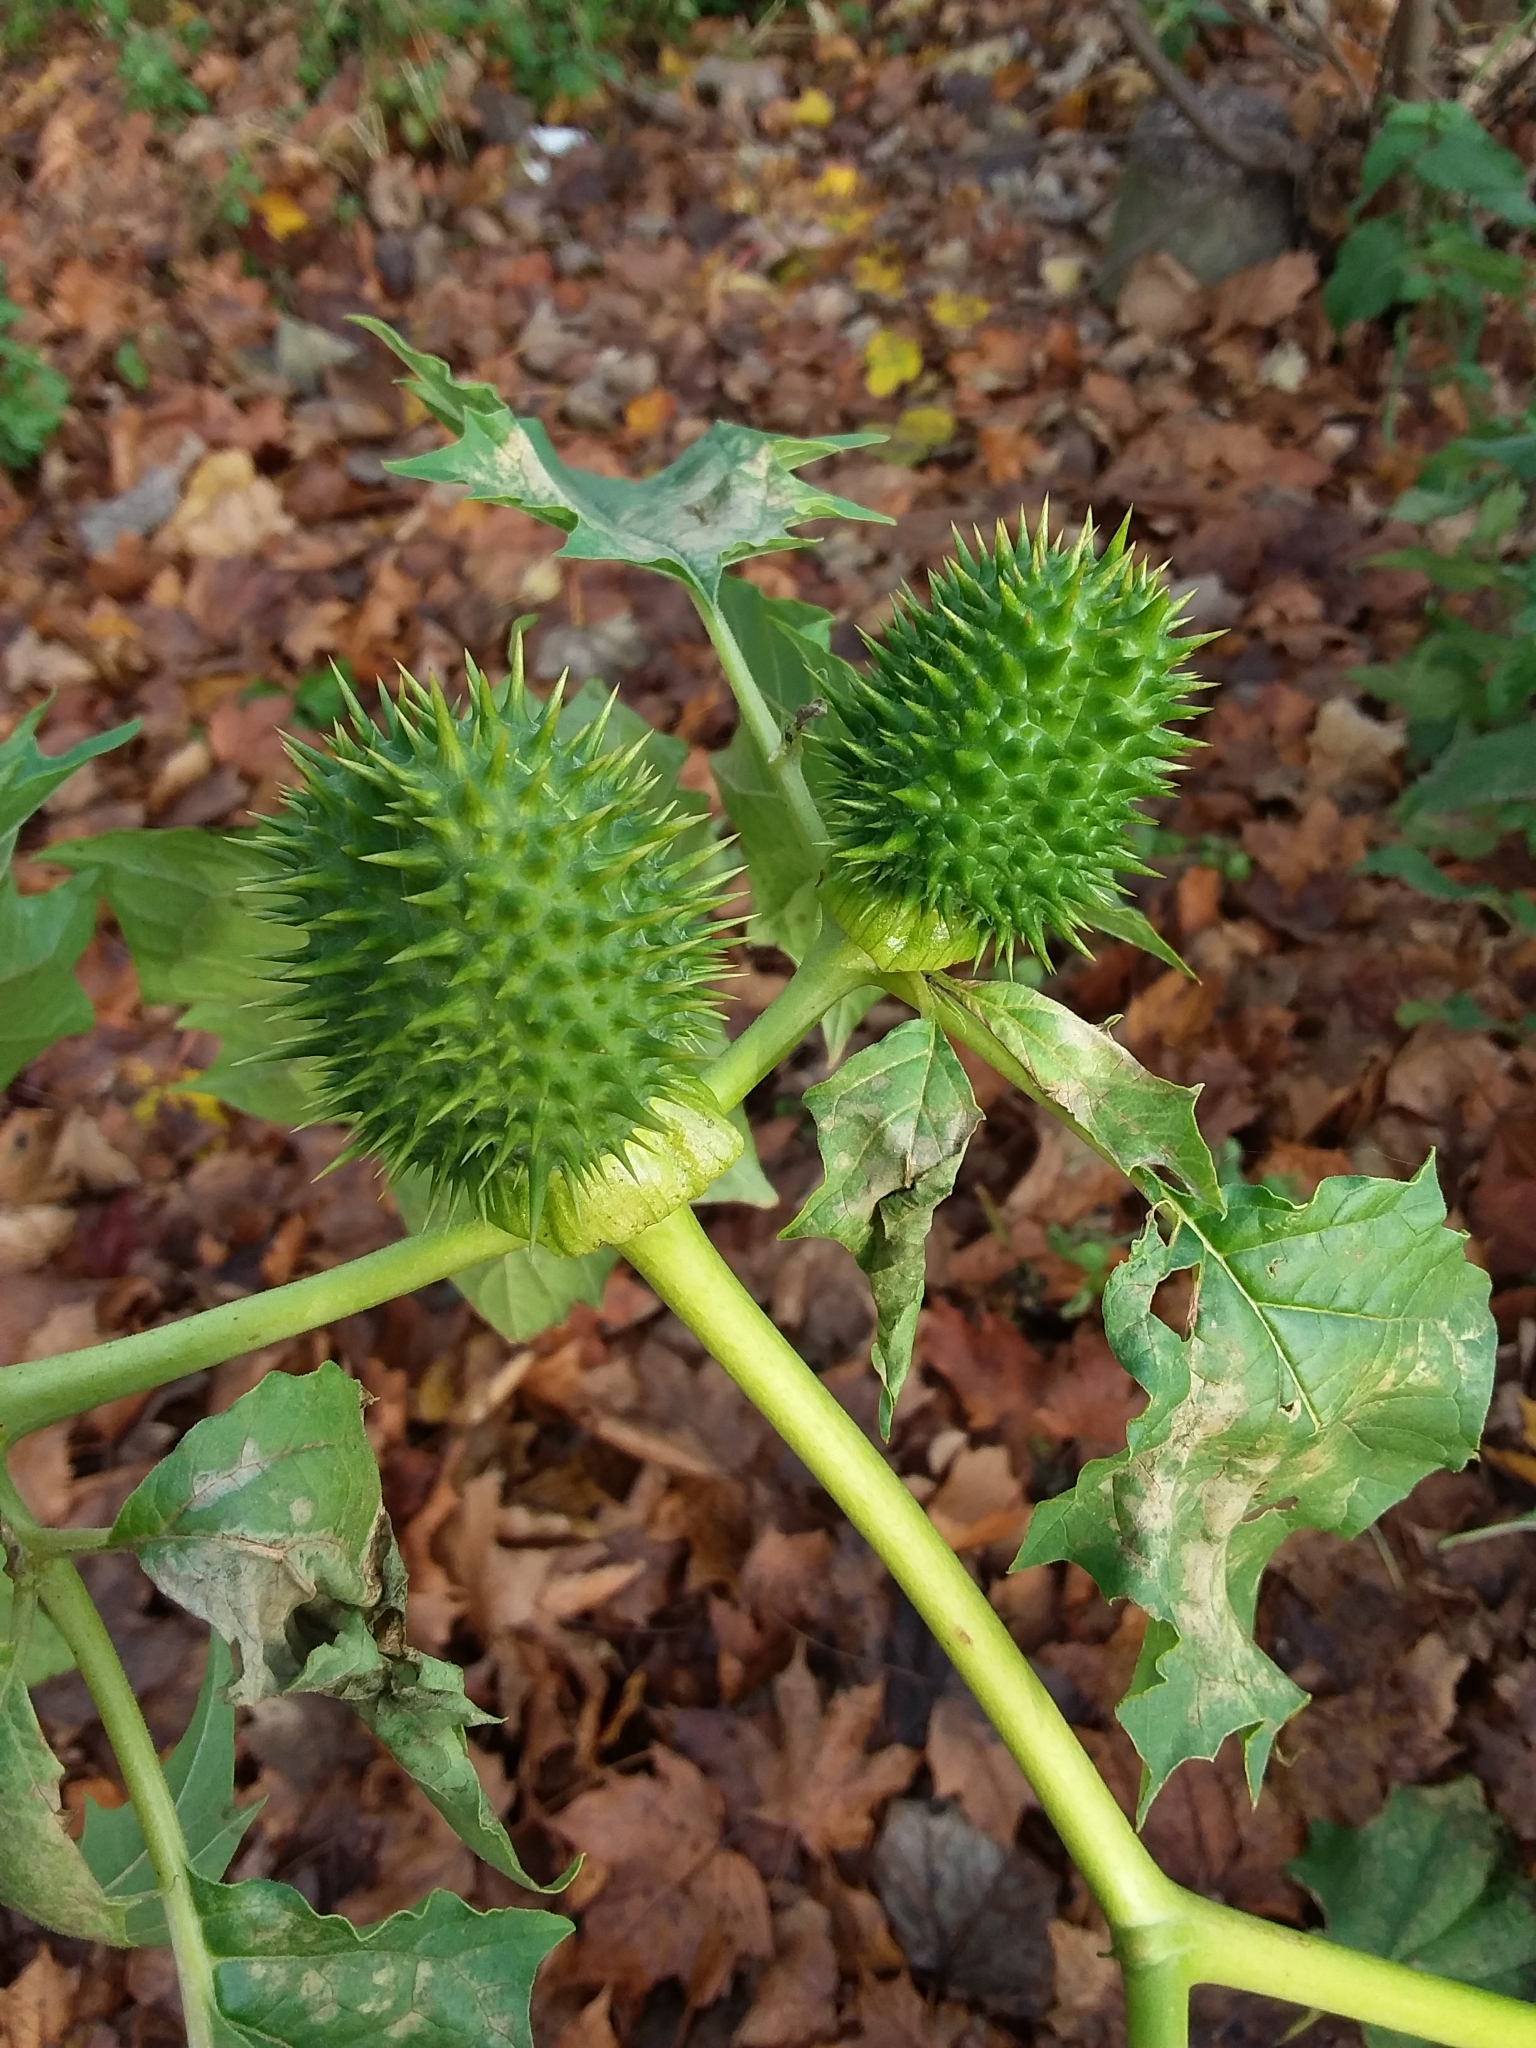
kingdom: Plantae
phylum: Tracheophyta
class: Magnoliopsida
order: Solanales
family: Solanaceae
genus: Datura
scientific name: Datura stramonium
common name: Thorn-apple
